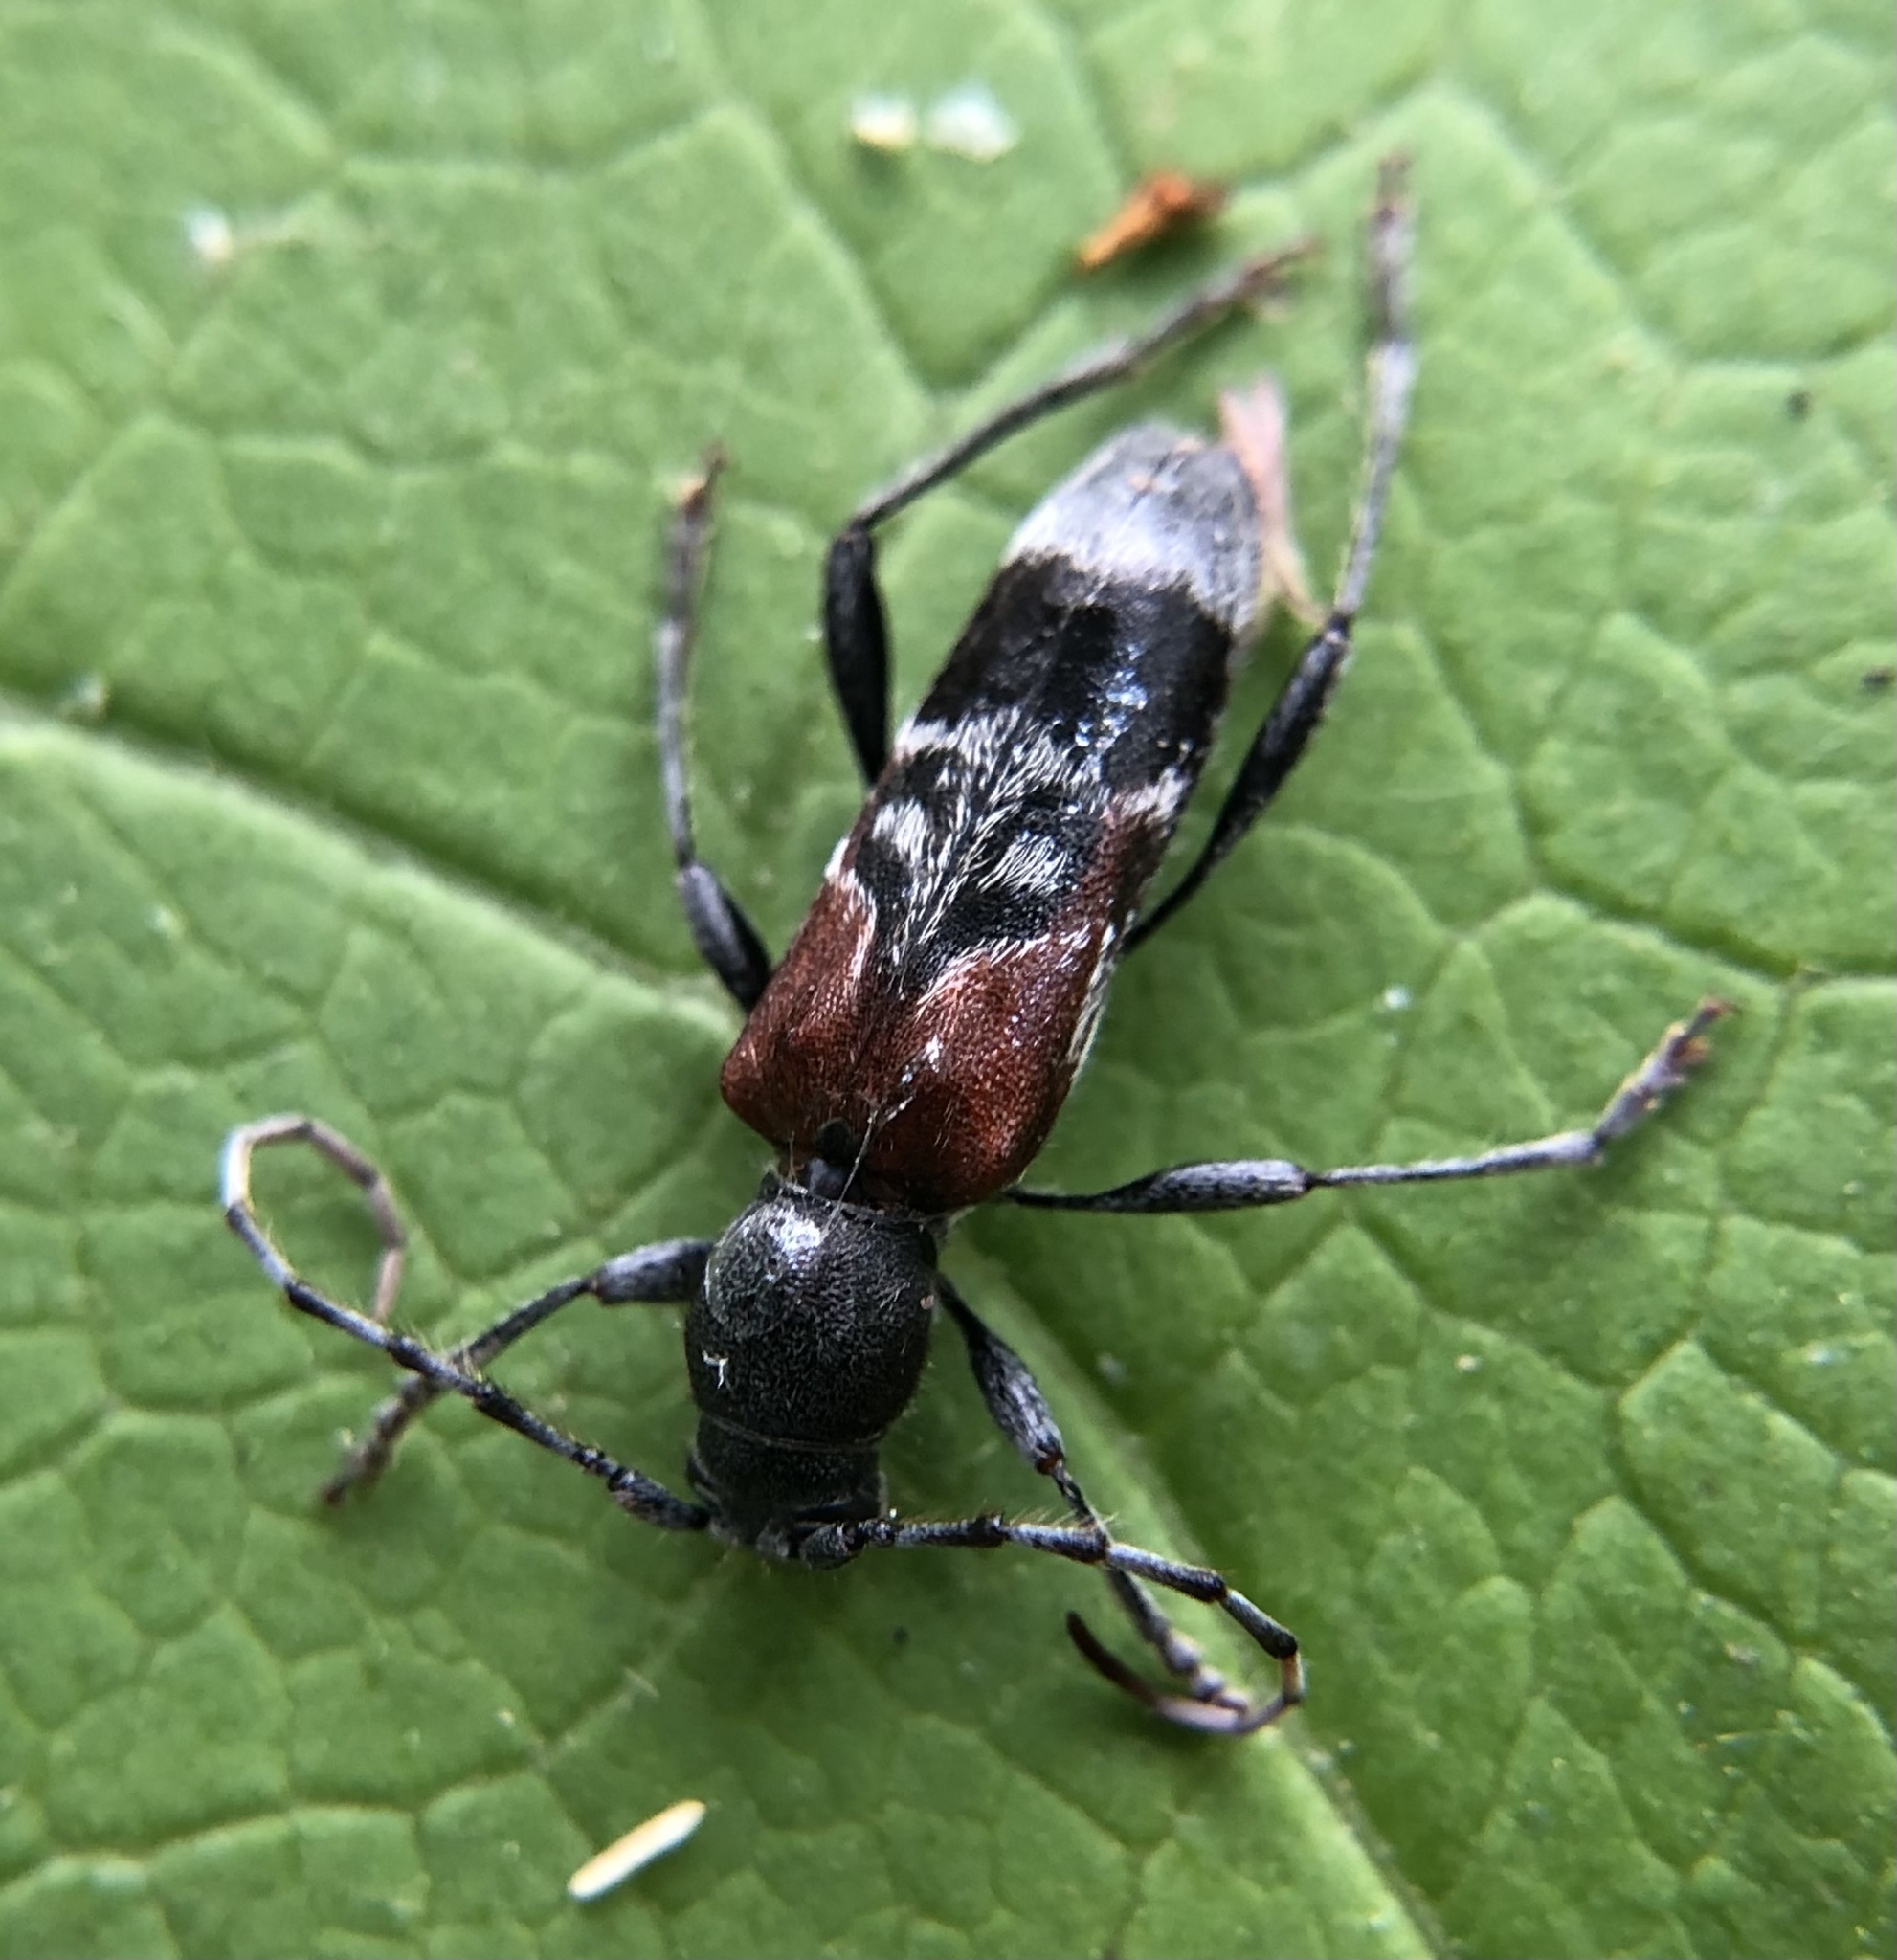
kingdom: Animalia
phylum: Arthropoda
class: Insecta
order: Coleoptera
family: Cerambycidae
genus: Anaglyptus
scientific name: Anaglyptus mysticus
